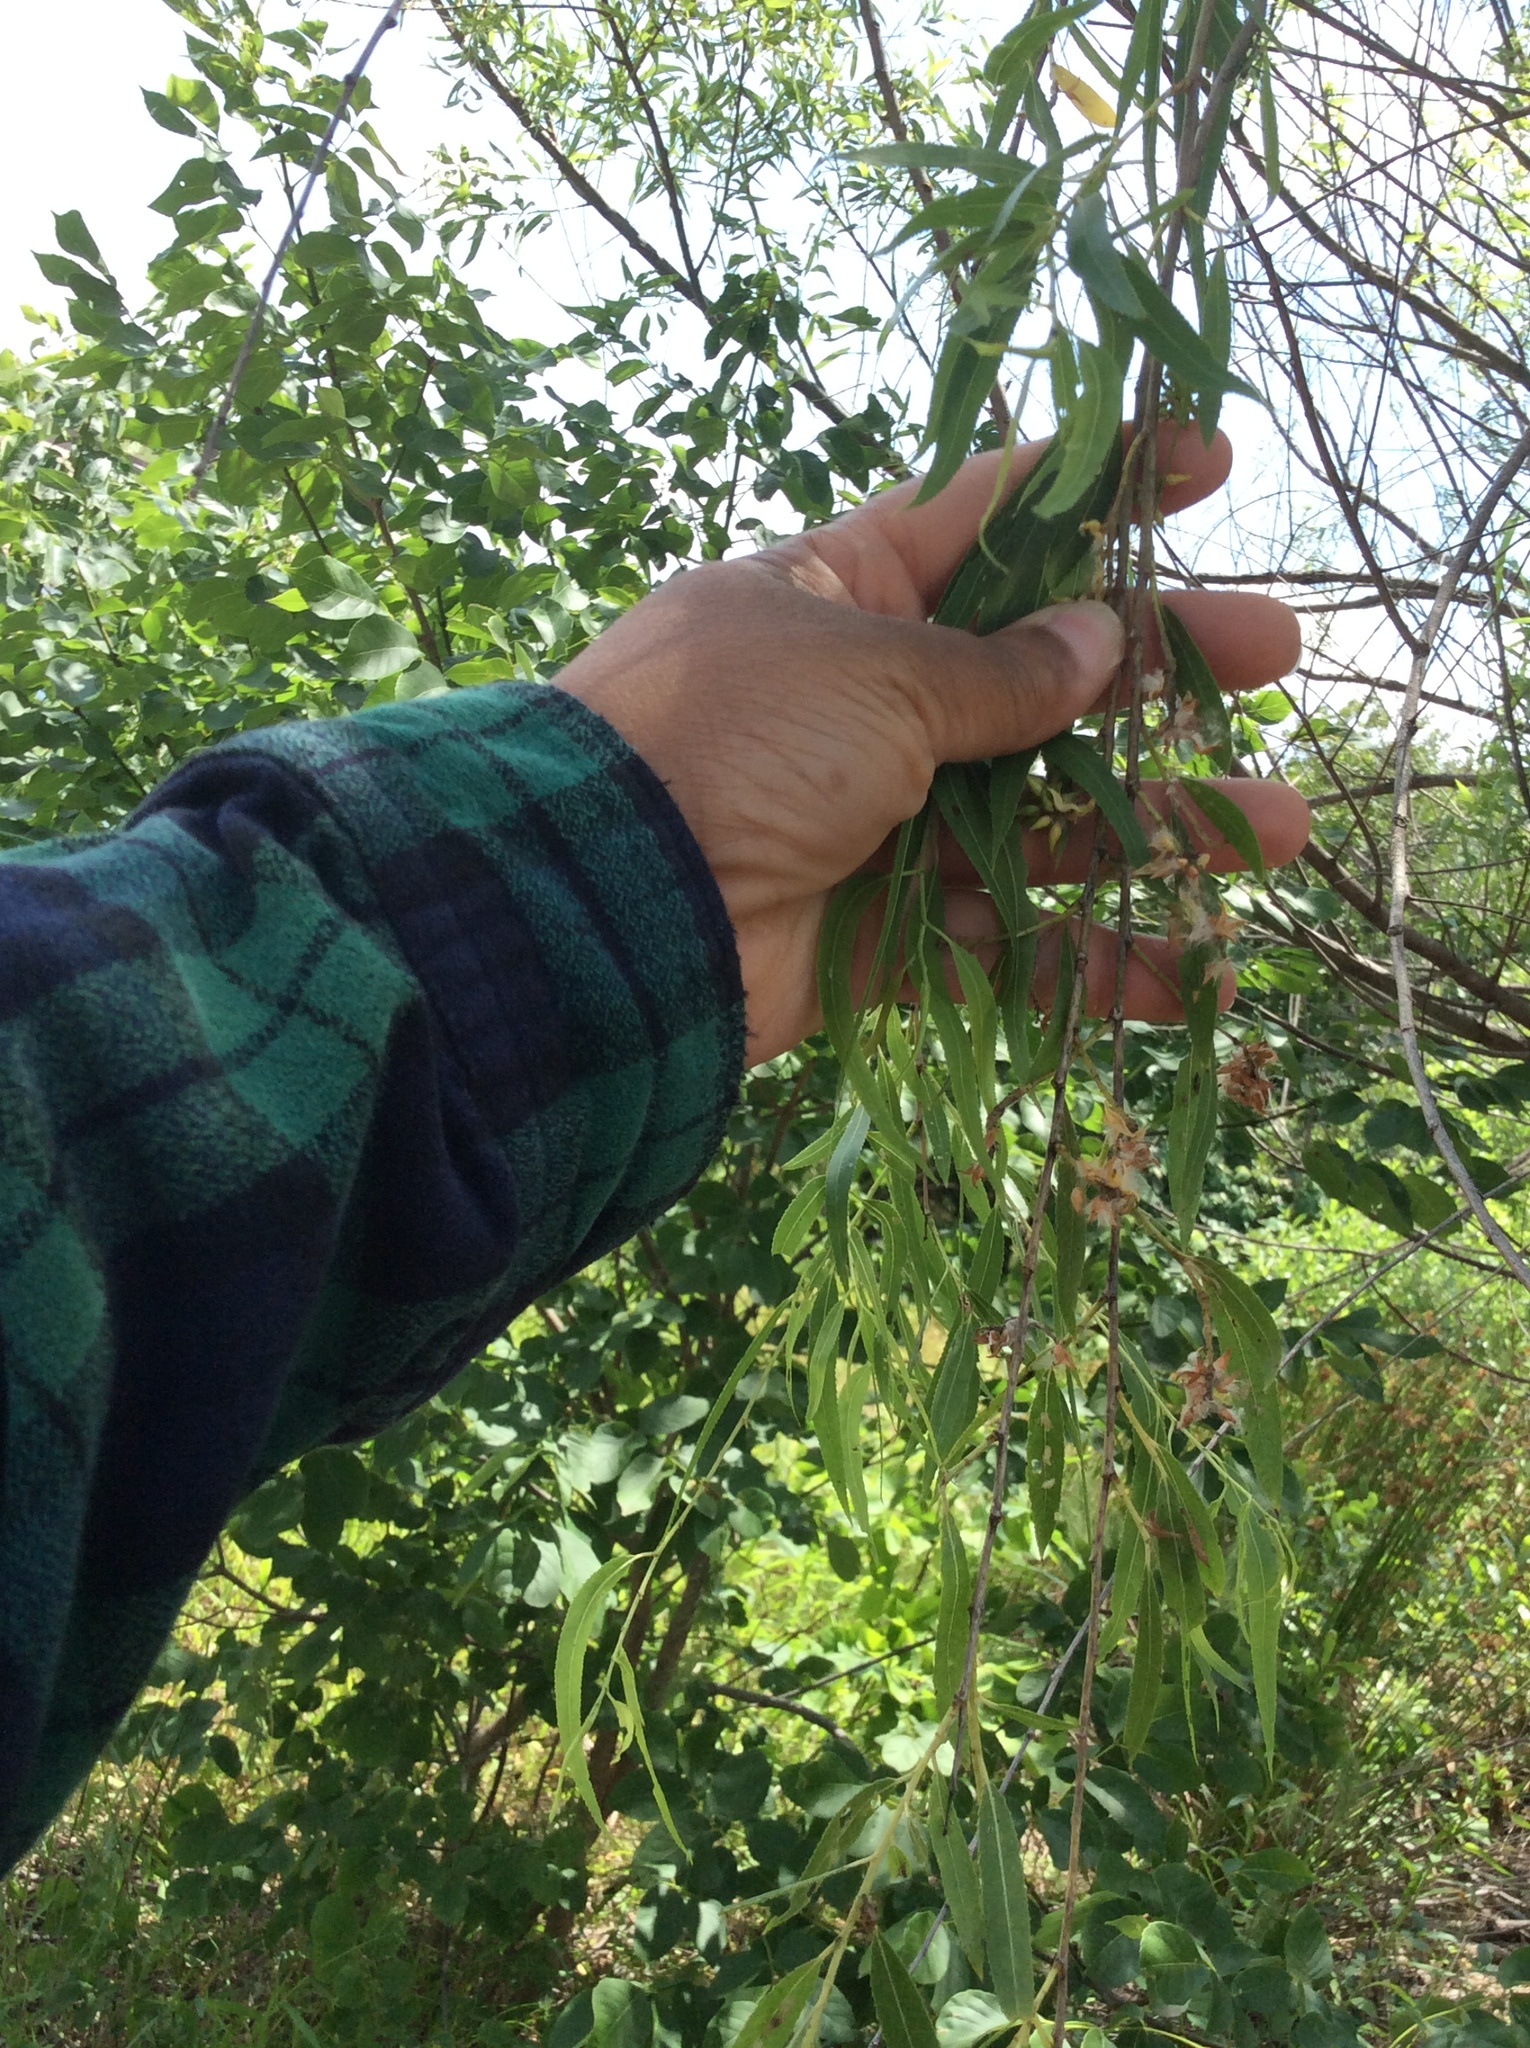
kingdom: Plantae
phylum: Tracheophyta
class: Magnoliopsida
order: Malpighiales
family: Salicaceae
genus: Salix
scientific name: Salix nigra
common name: Black willow
